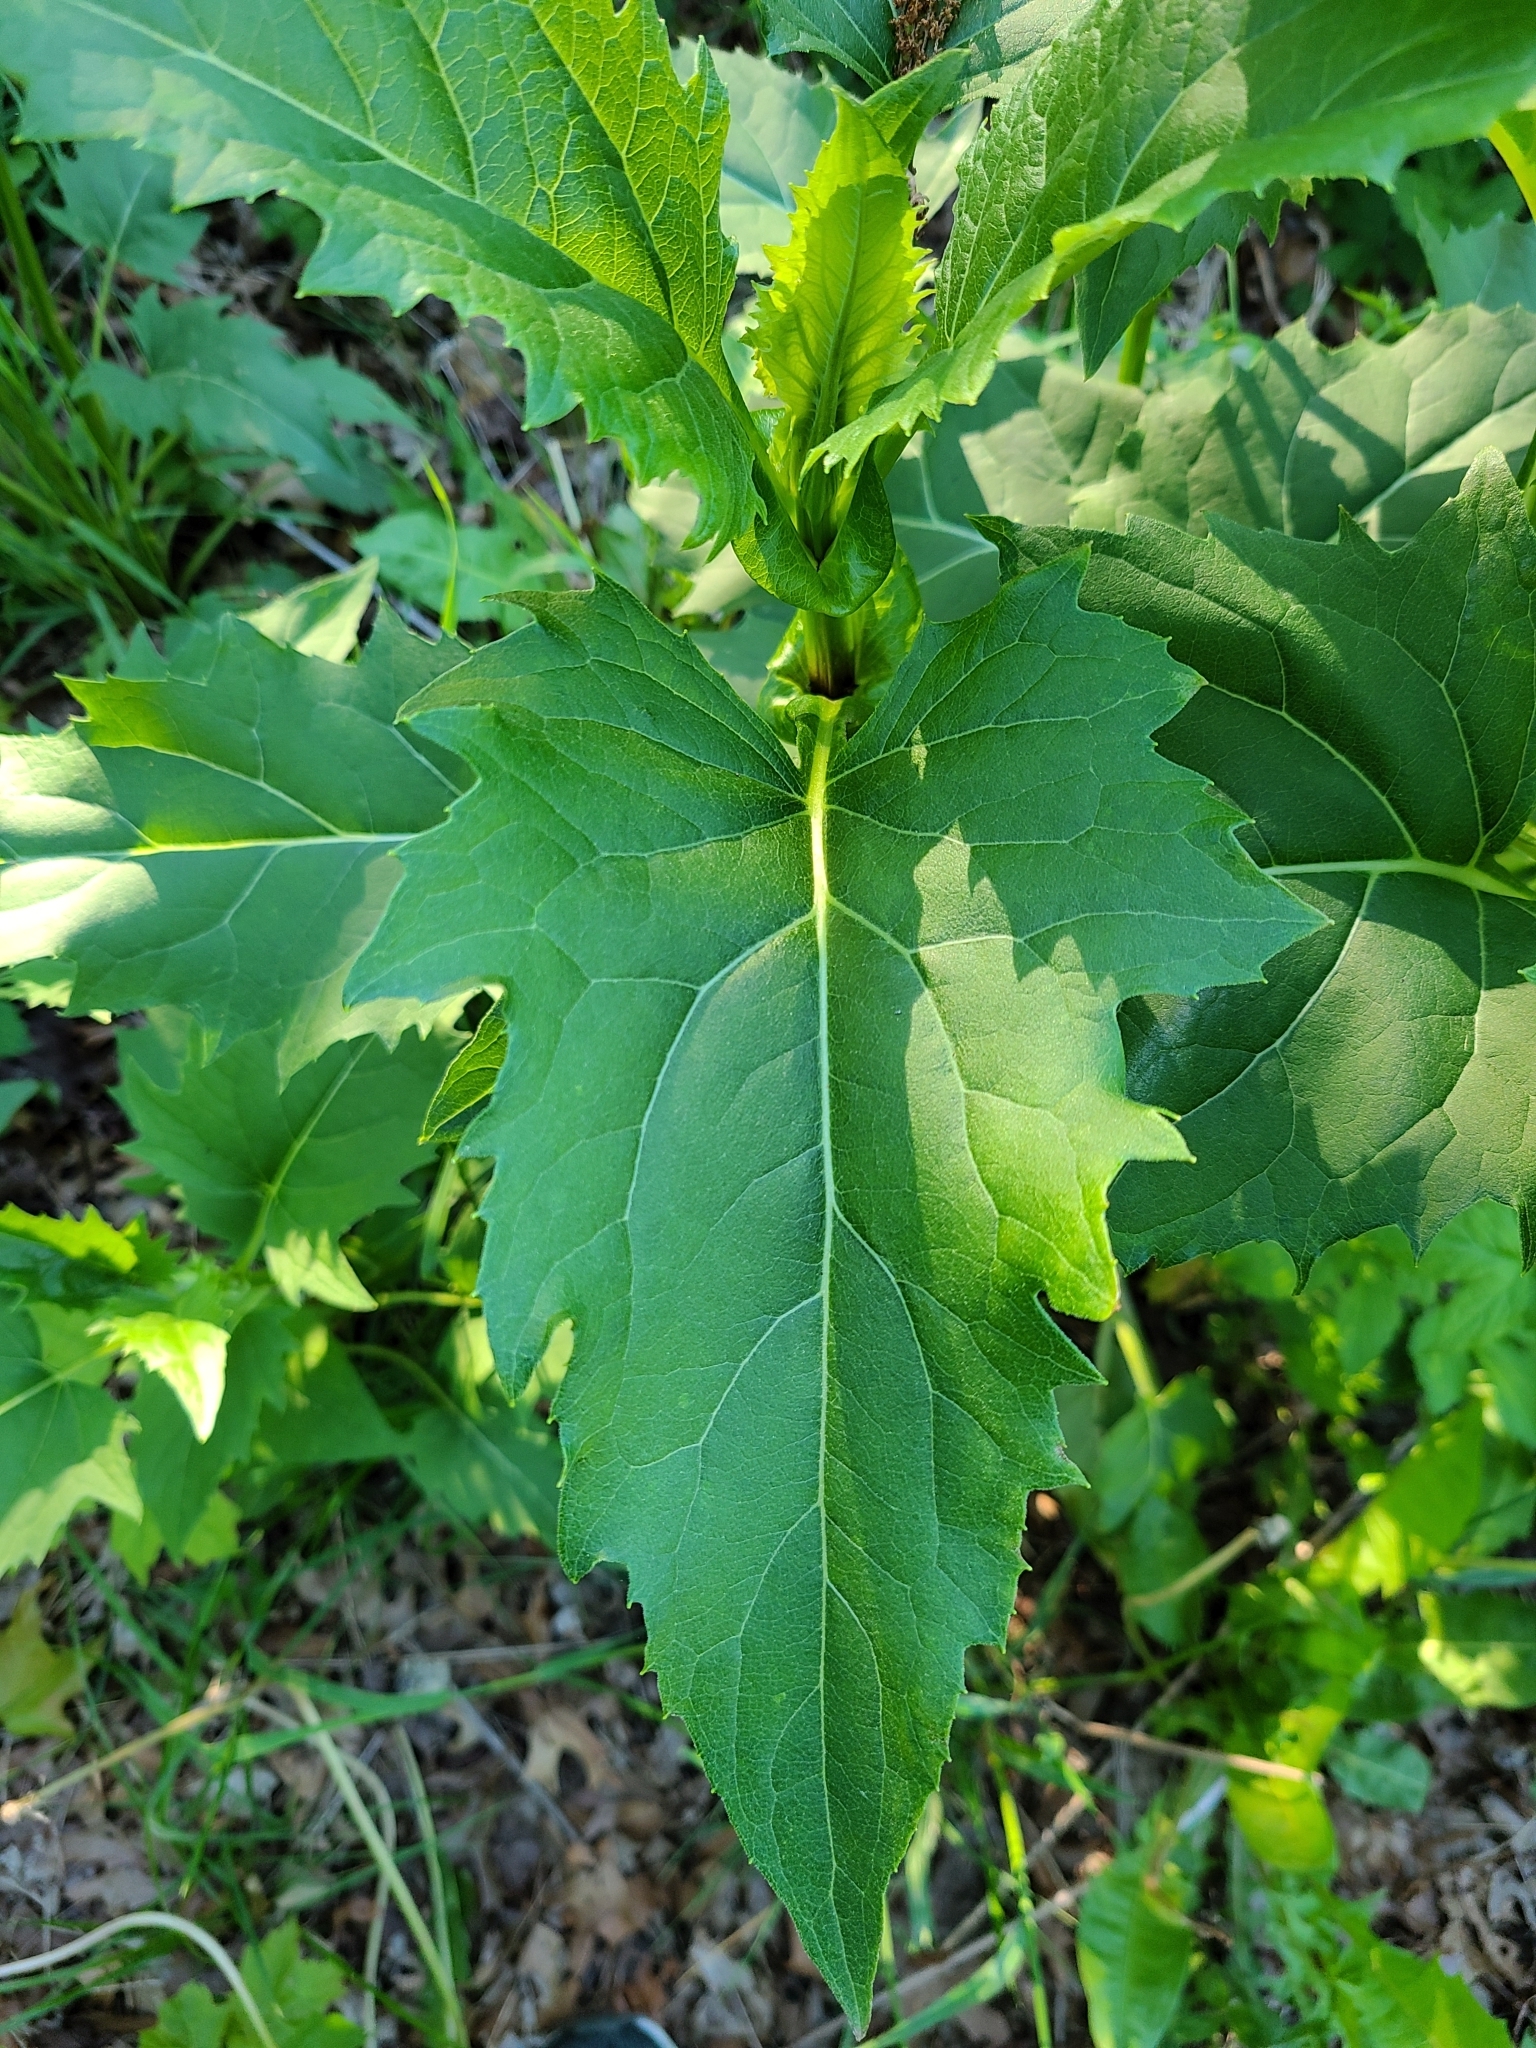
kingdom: Plantae
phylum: Tracheophyta
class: Magnoliopsida
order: Asterales
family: Asteraceae
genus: Silphium
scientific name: Silphium perfoliatum
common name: Cup-plant
